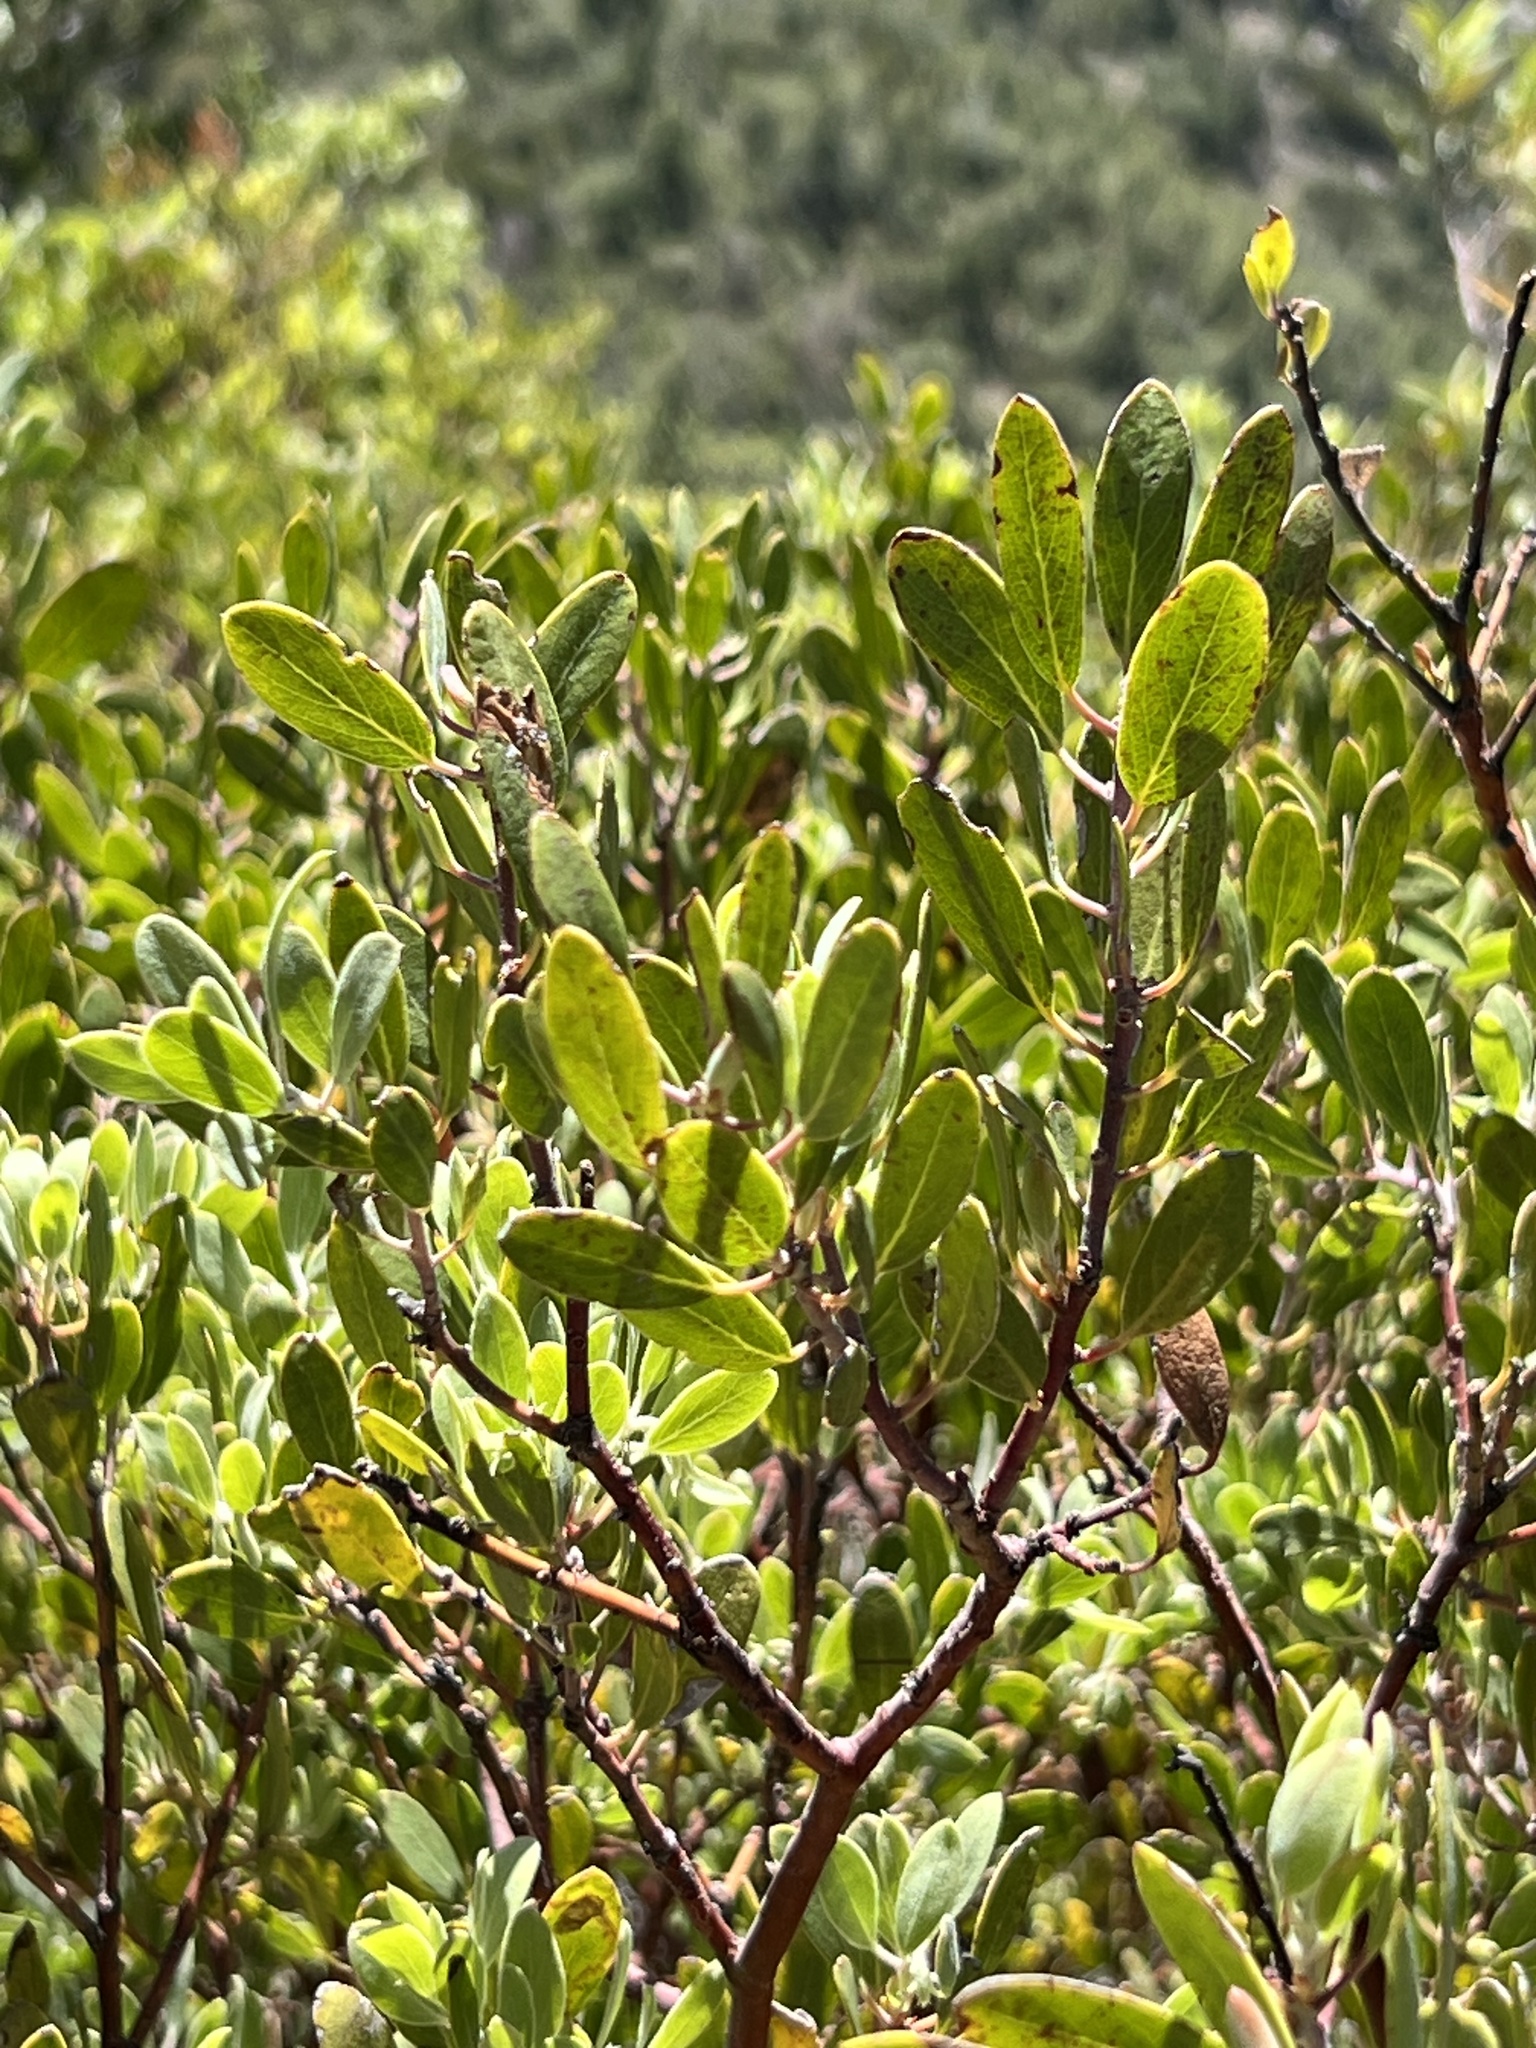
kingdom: Plantae
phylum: Tracheophyta
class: Magnoliopsida
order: Ericales
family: Ericaceae
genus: Arctostaphylos
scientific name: Arctostaphylos pungens
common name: Mexican manzanita
